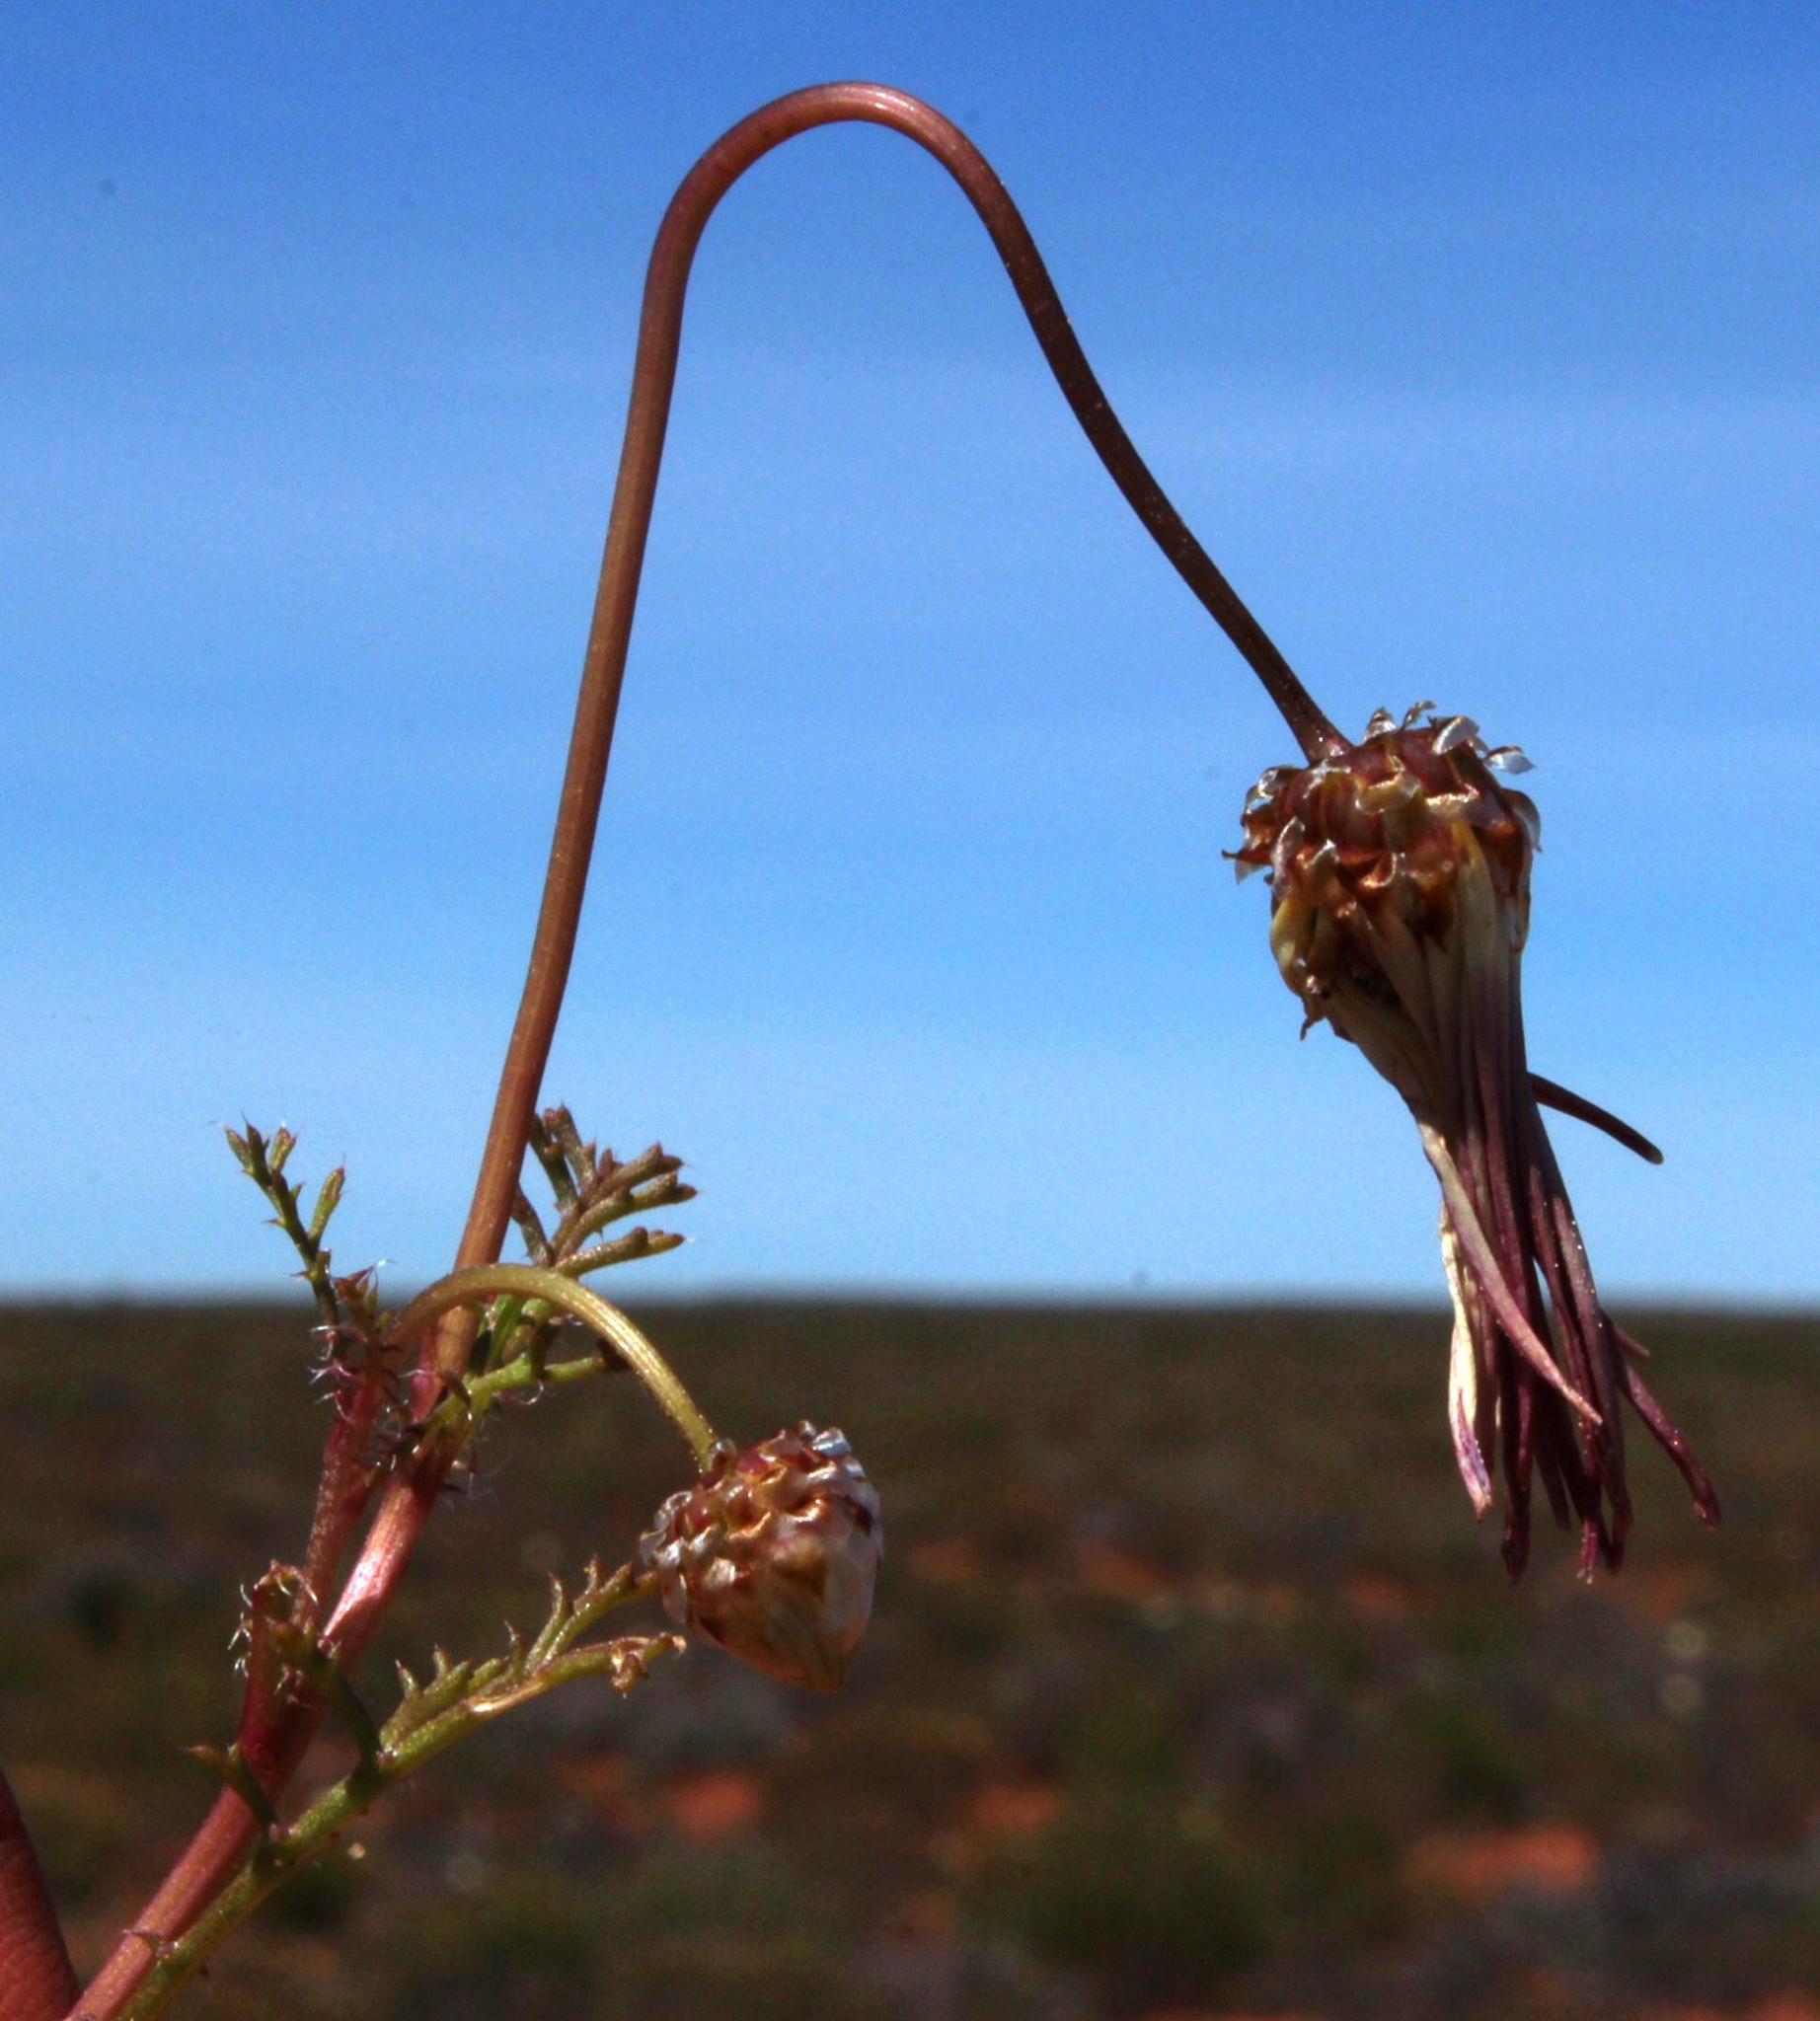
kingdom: Plantae
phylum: Tracheophyta
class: Magnoliopsida
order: Asterales
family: Asteraceae
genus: Ursinia
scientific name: Ursinia speciosa
